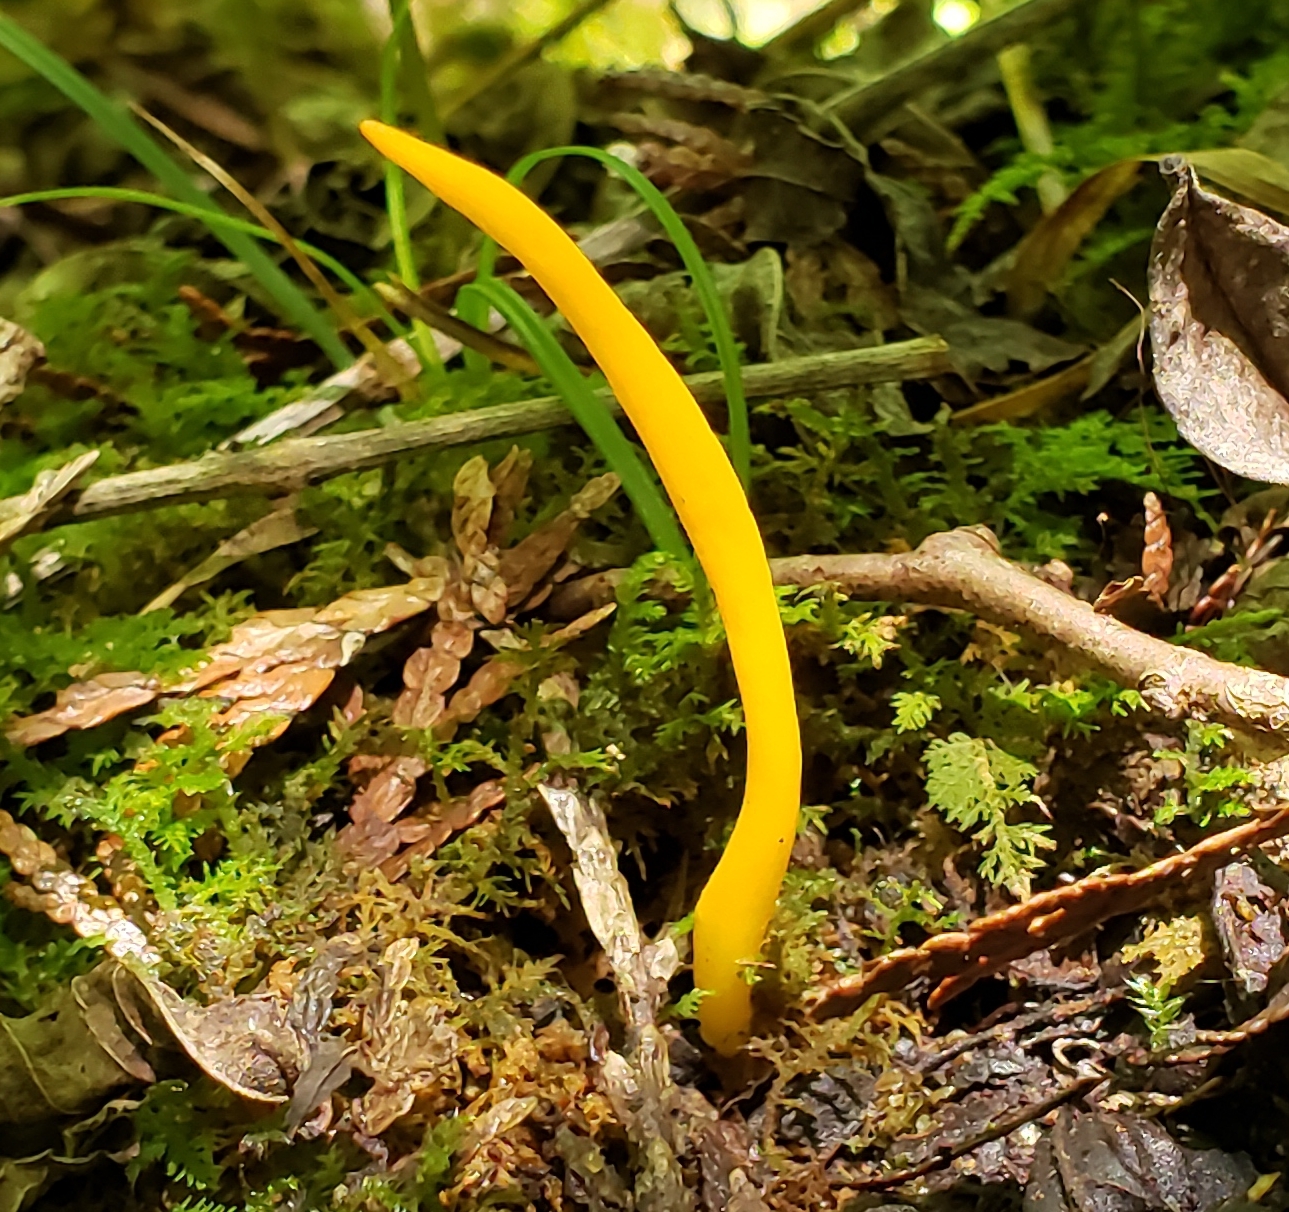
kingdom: Fungi
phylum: Basidiomycota
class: Agaricomycetes
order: Agaricales
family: Clavariaceae
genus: Clavulinopsis
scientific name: Clavulinopsis fusiformis
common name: Golden spindles
